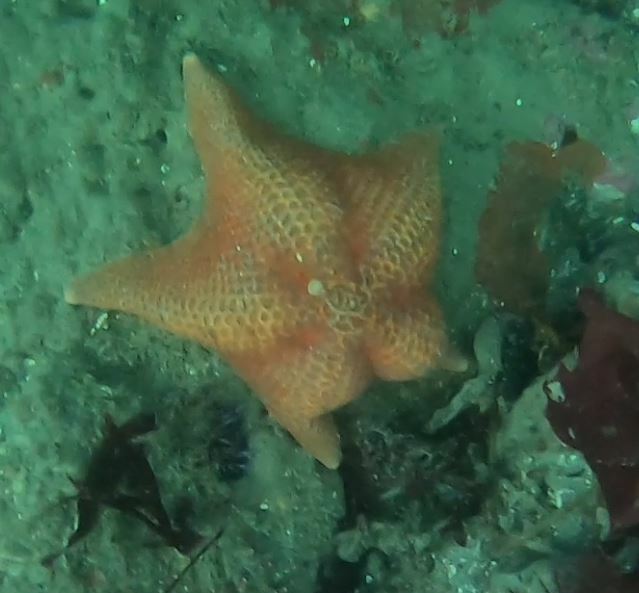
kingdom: Animalia
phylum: Echinodermata
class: Asteroidea
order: Valvatida
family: Asterinidae
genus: Patiria
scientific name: Patiria miniata
